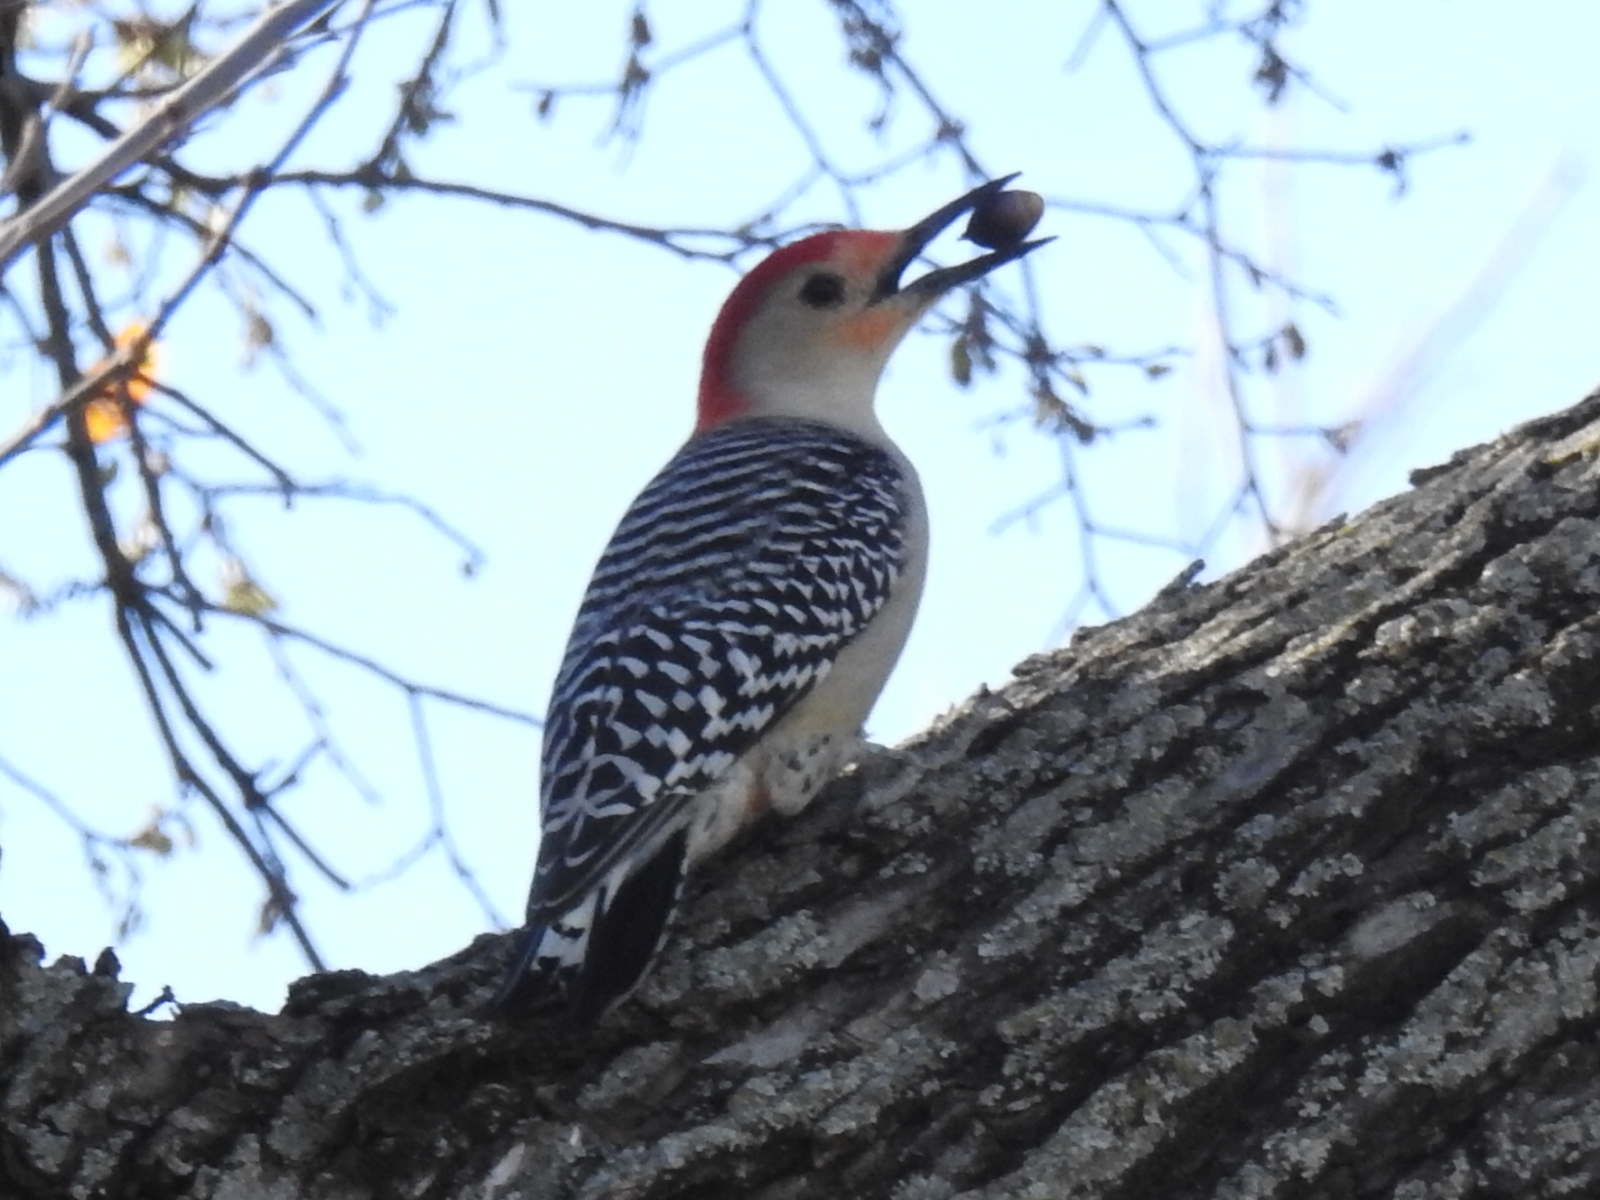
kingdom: Animalia
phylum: Chordata
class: Aves
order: Piciformes
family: Picidae
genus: Melanerpes
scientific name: Melanerpes carolinus
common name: Red-bellied woodpecker
